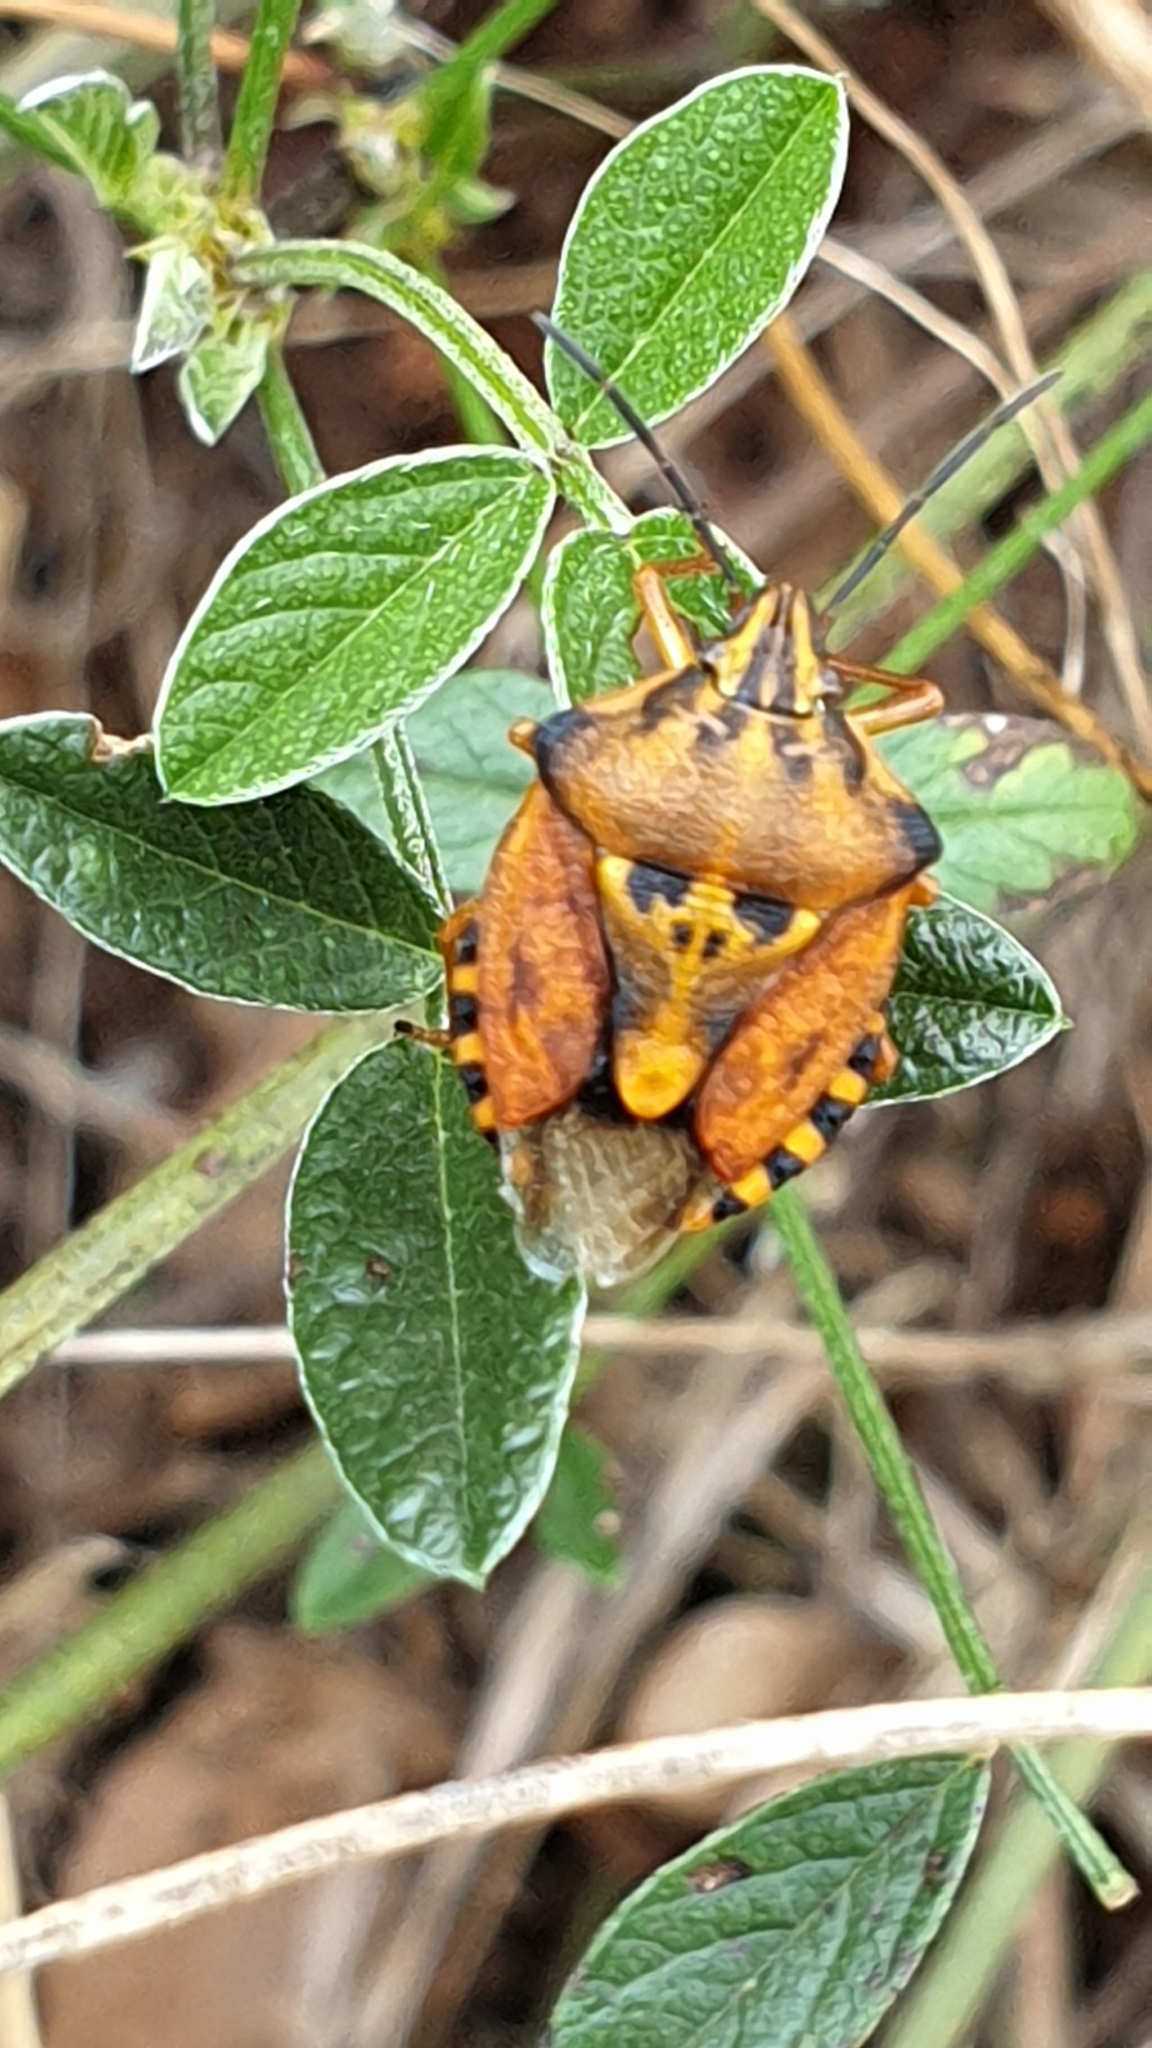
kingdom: Animalia
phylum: Arthropoda
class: Insecta
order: Hemiptera
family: Pentatomidae
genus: Carpocoris
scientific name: Carpocoris purpureipennis
